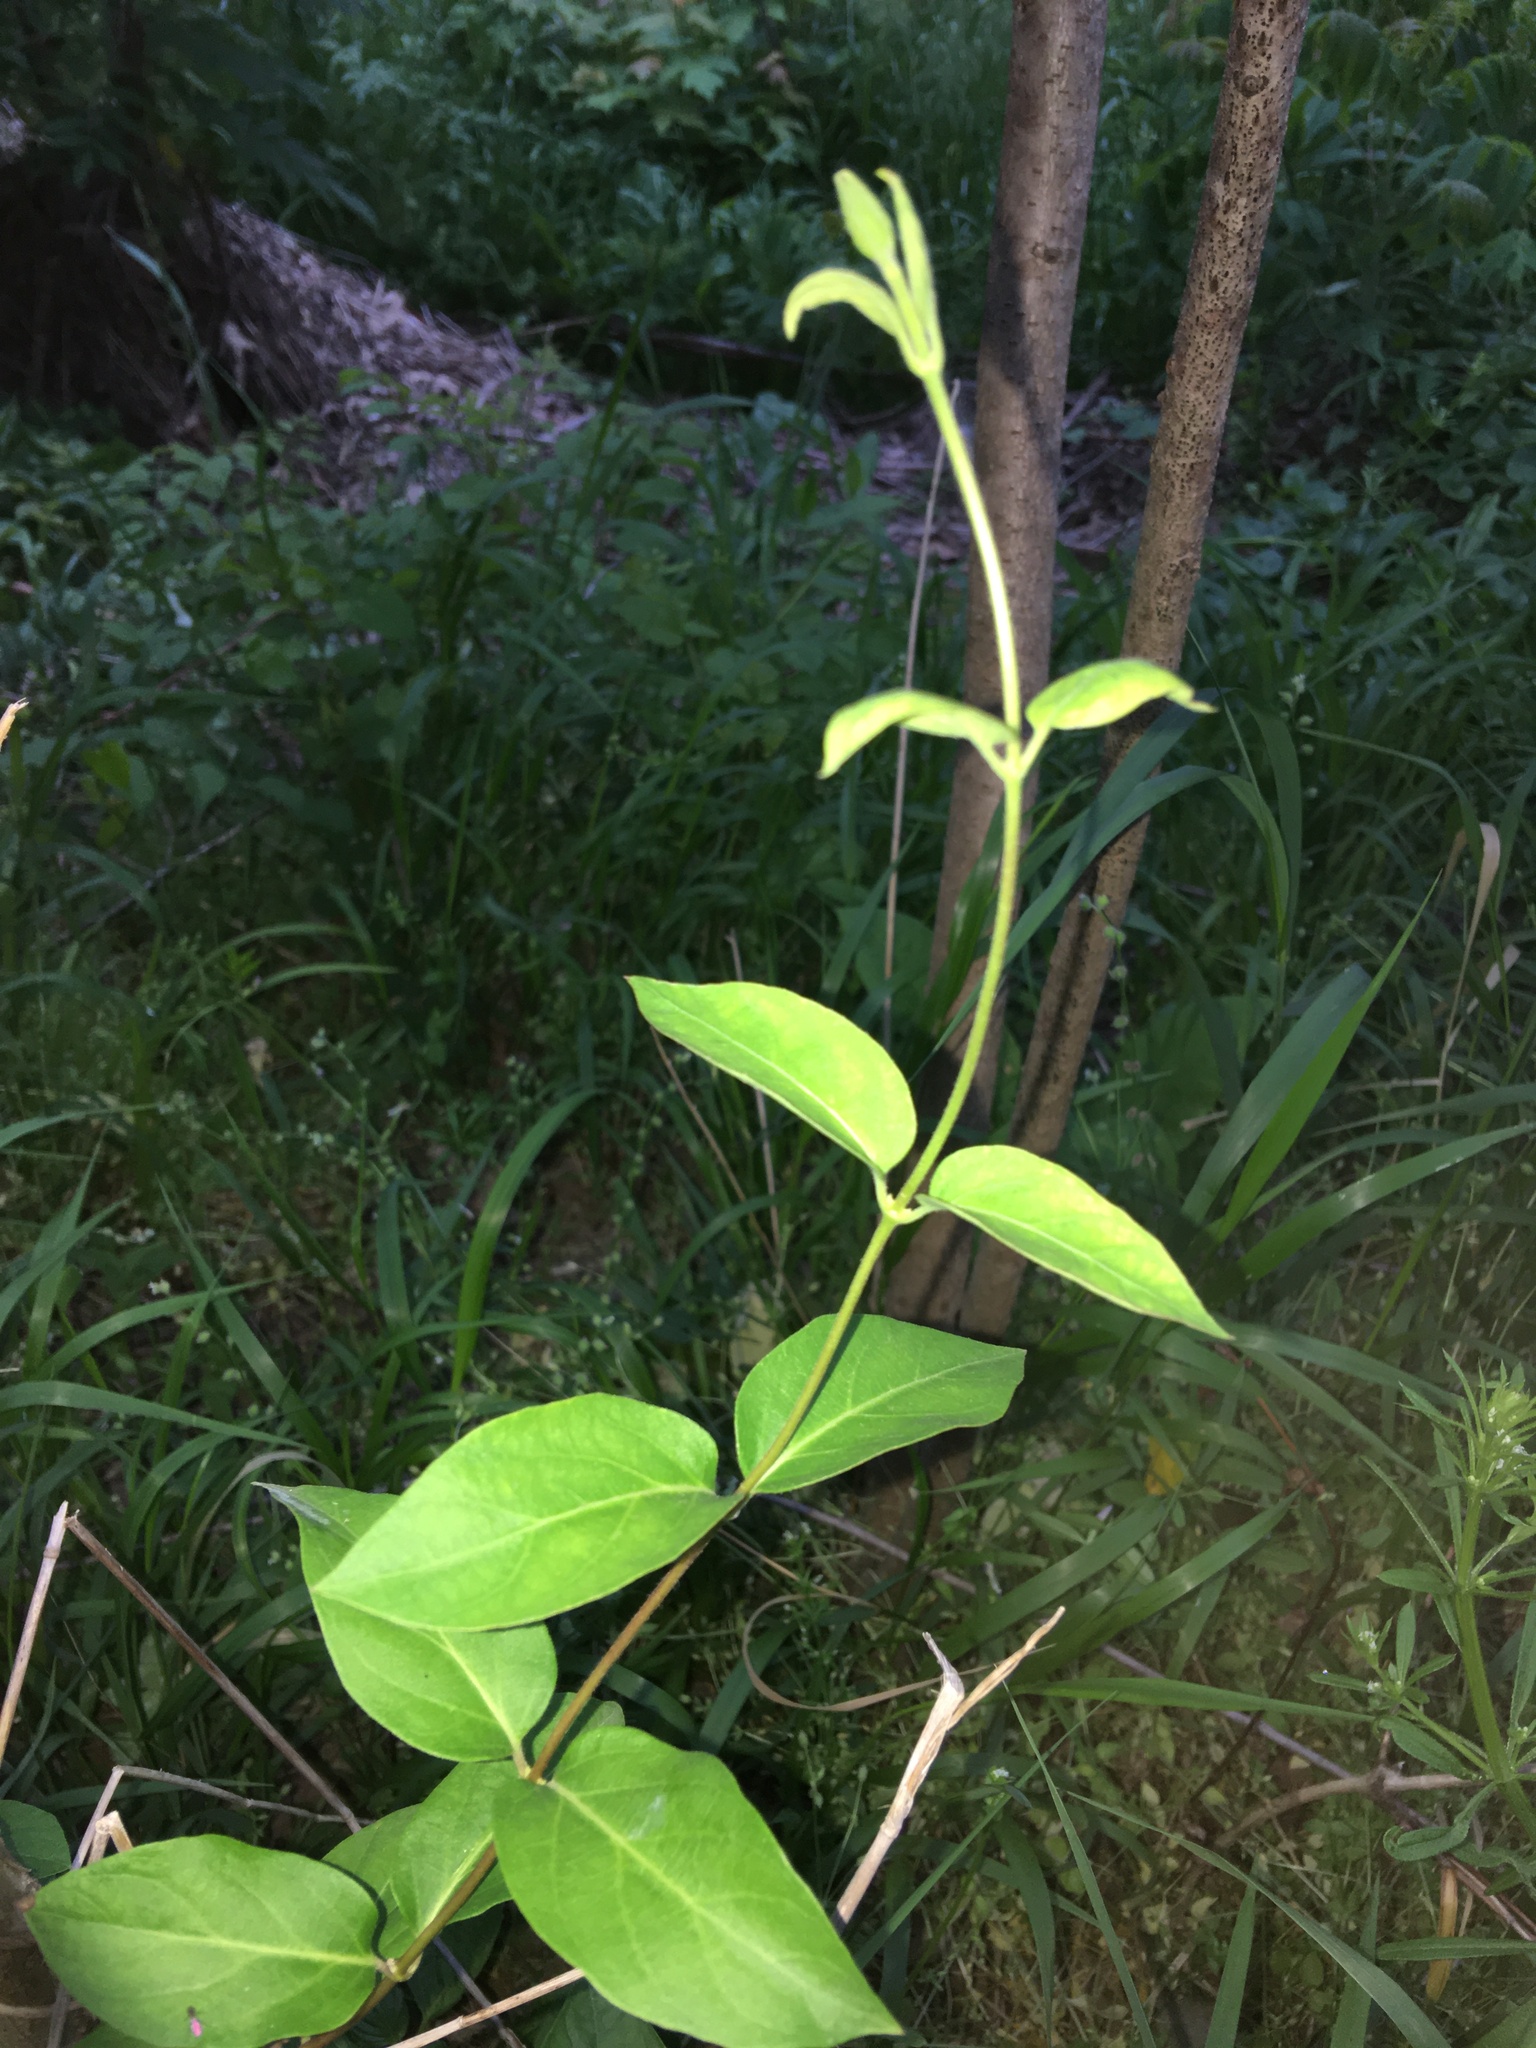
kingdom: Plantae
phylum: Tracheophyta
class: Magnoliopsida
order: Dipsacales
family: Caprifoliaceae
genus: Lonicera
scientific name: Lonicera japonica
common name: Japanese honeysuckle
